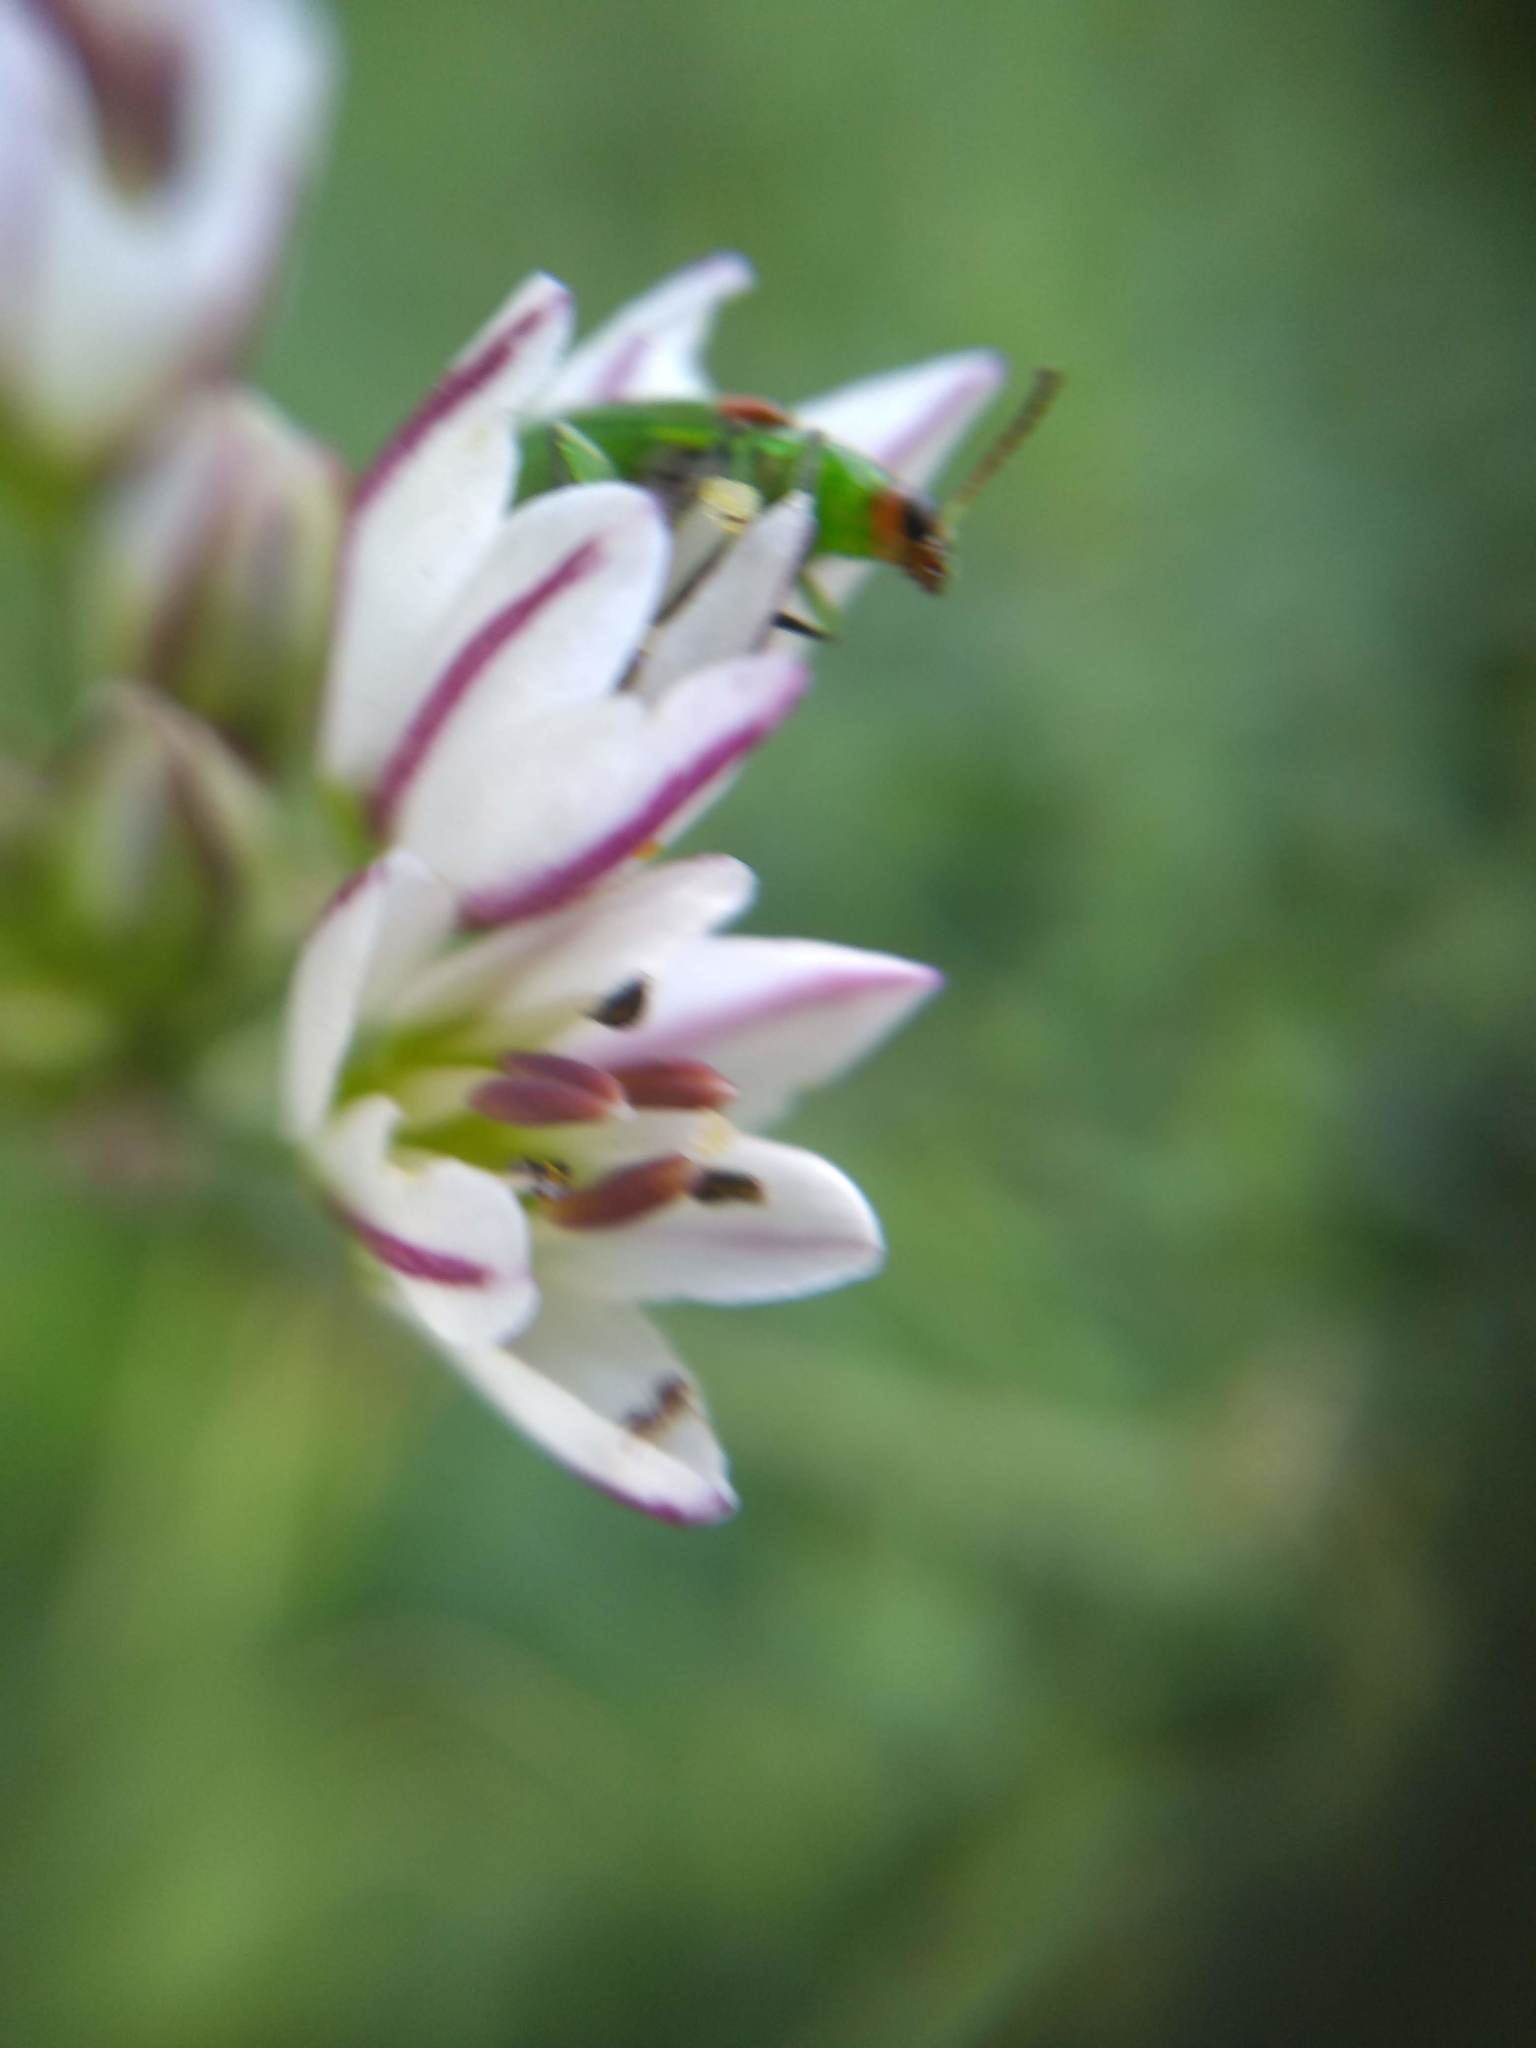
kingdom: Animalia
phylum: Arthropoda
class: Insecta
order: Coleoptera
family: Chrysomelidae
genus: Diabrotica
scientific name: Diabrotica speciosa
